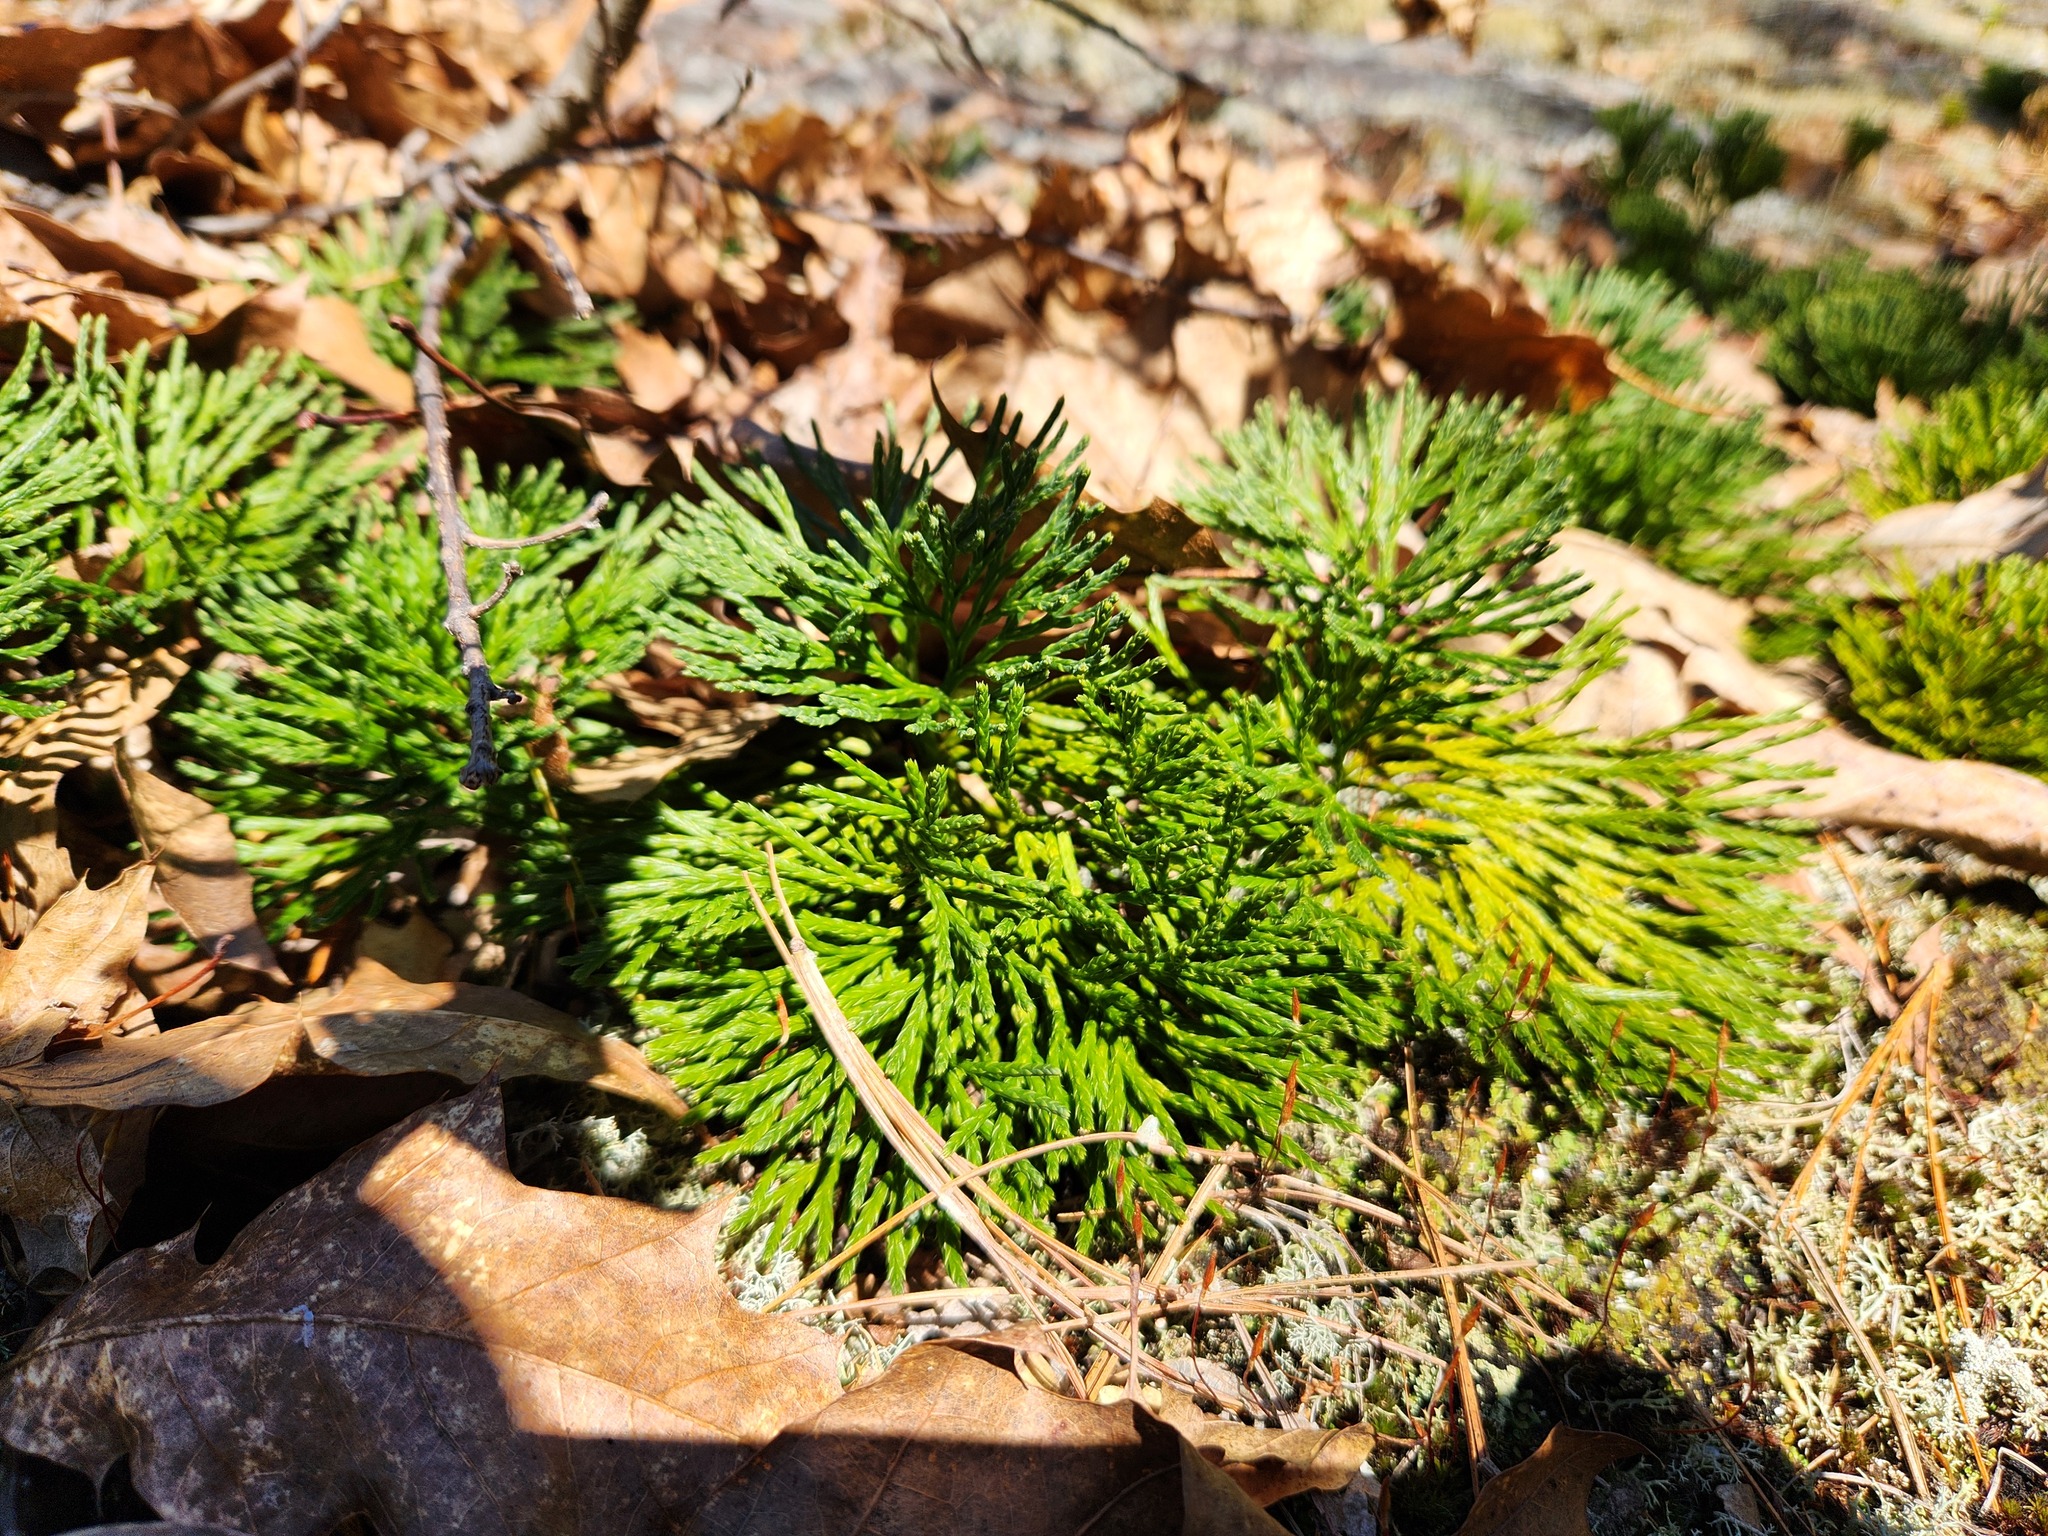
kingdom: Plantae
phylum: Tracheophyta
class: Lycopodiopsida
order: Lycopodiales
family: Lycopodiaceae
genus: Diphasiastrum
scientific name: Diphasiastrum tristachyum
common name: Blue ground-cedar
